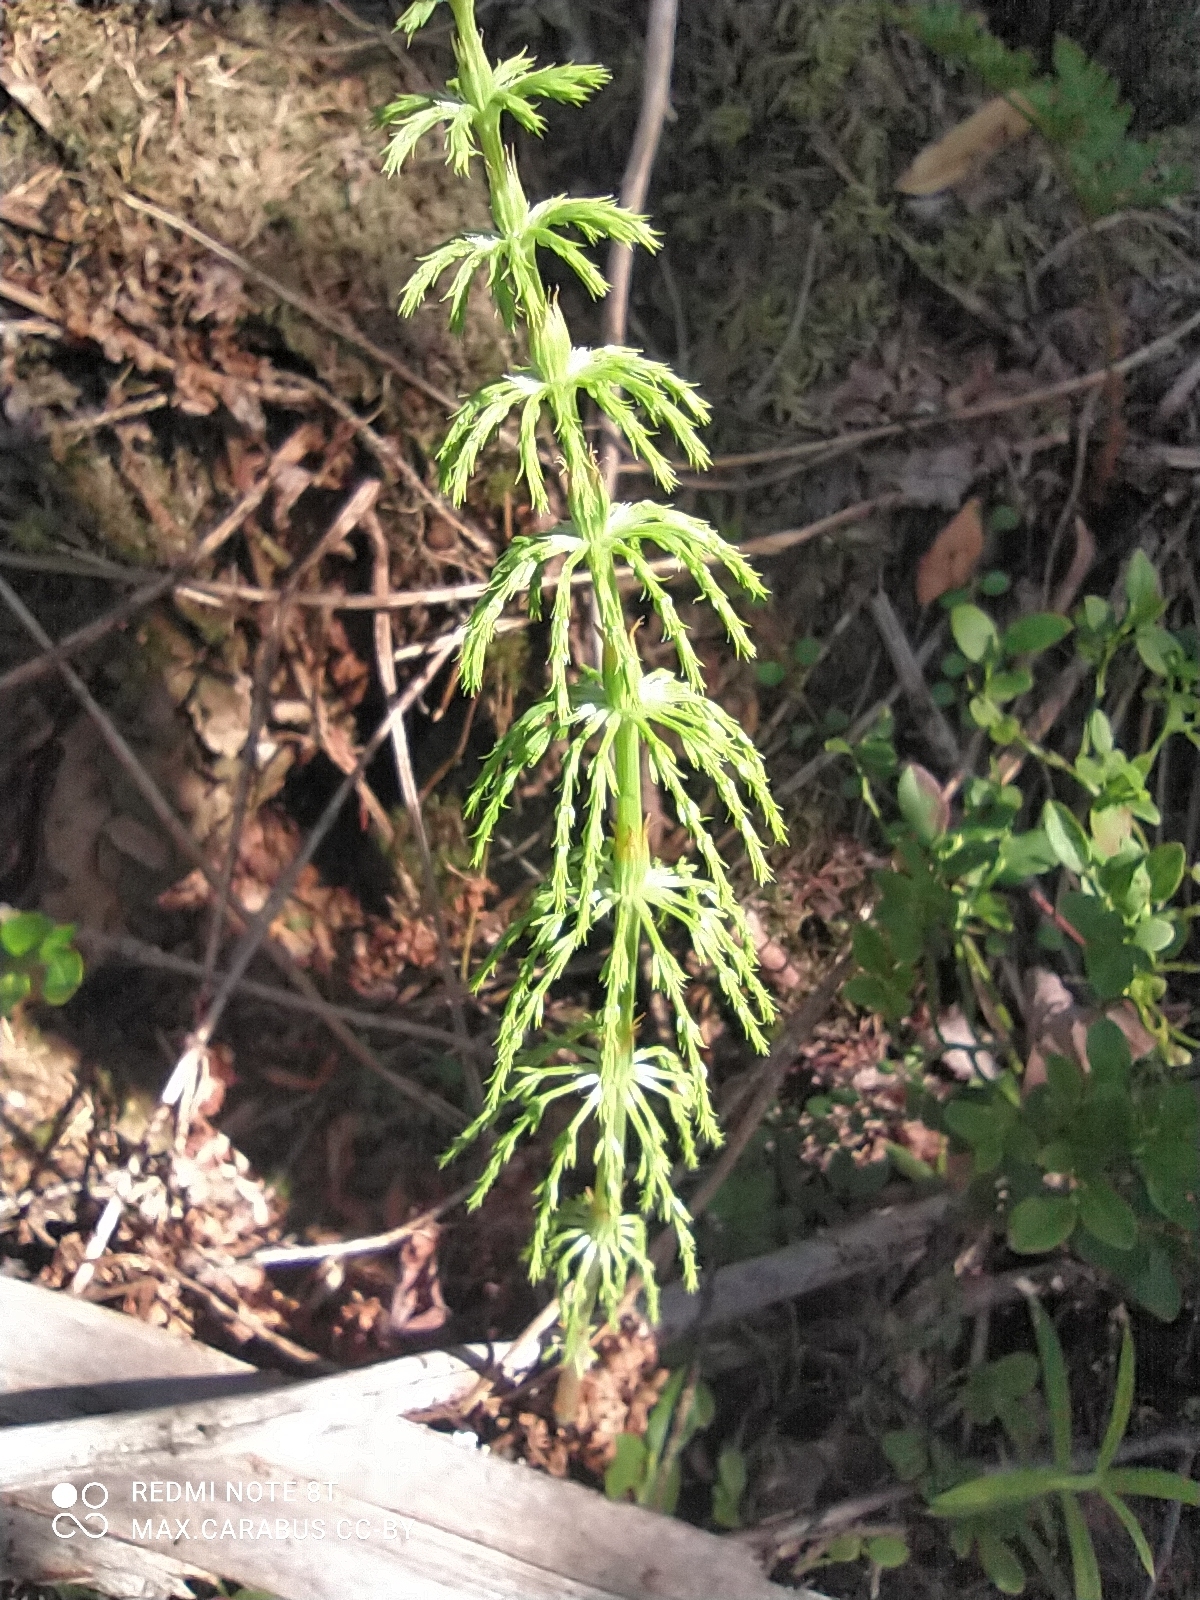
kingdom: Plantae
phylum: Tracheophyta
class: Polypodiopsida
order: Equisetales
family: Equisetaceae
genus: Equisetum
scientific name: Equisetum sylvaticum
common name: Wood horsetail
